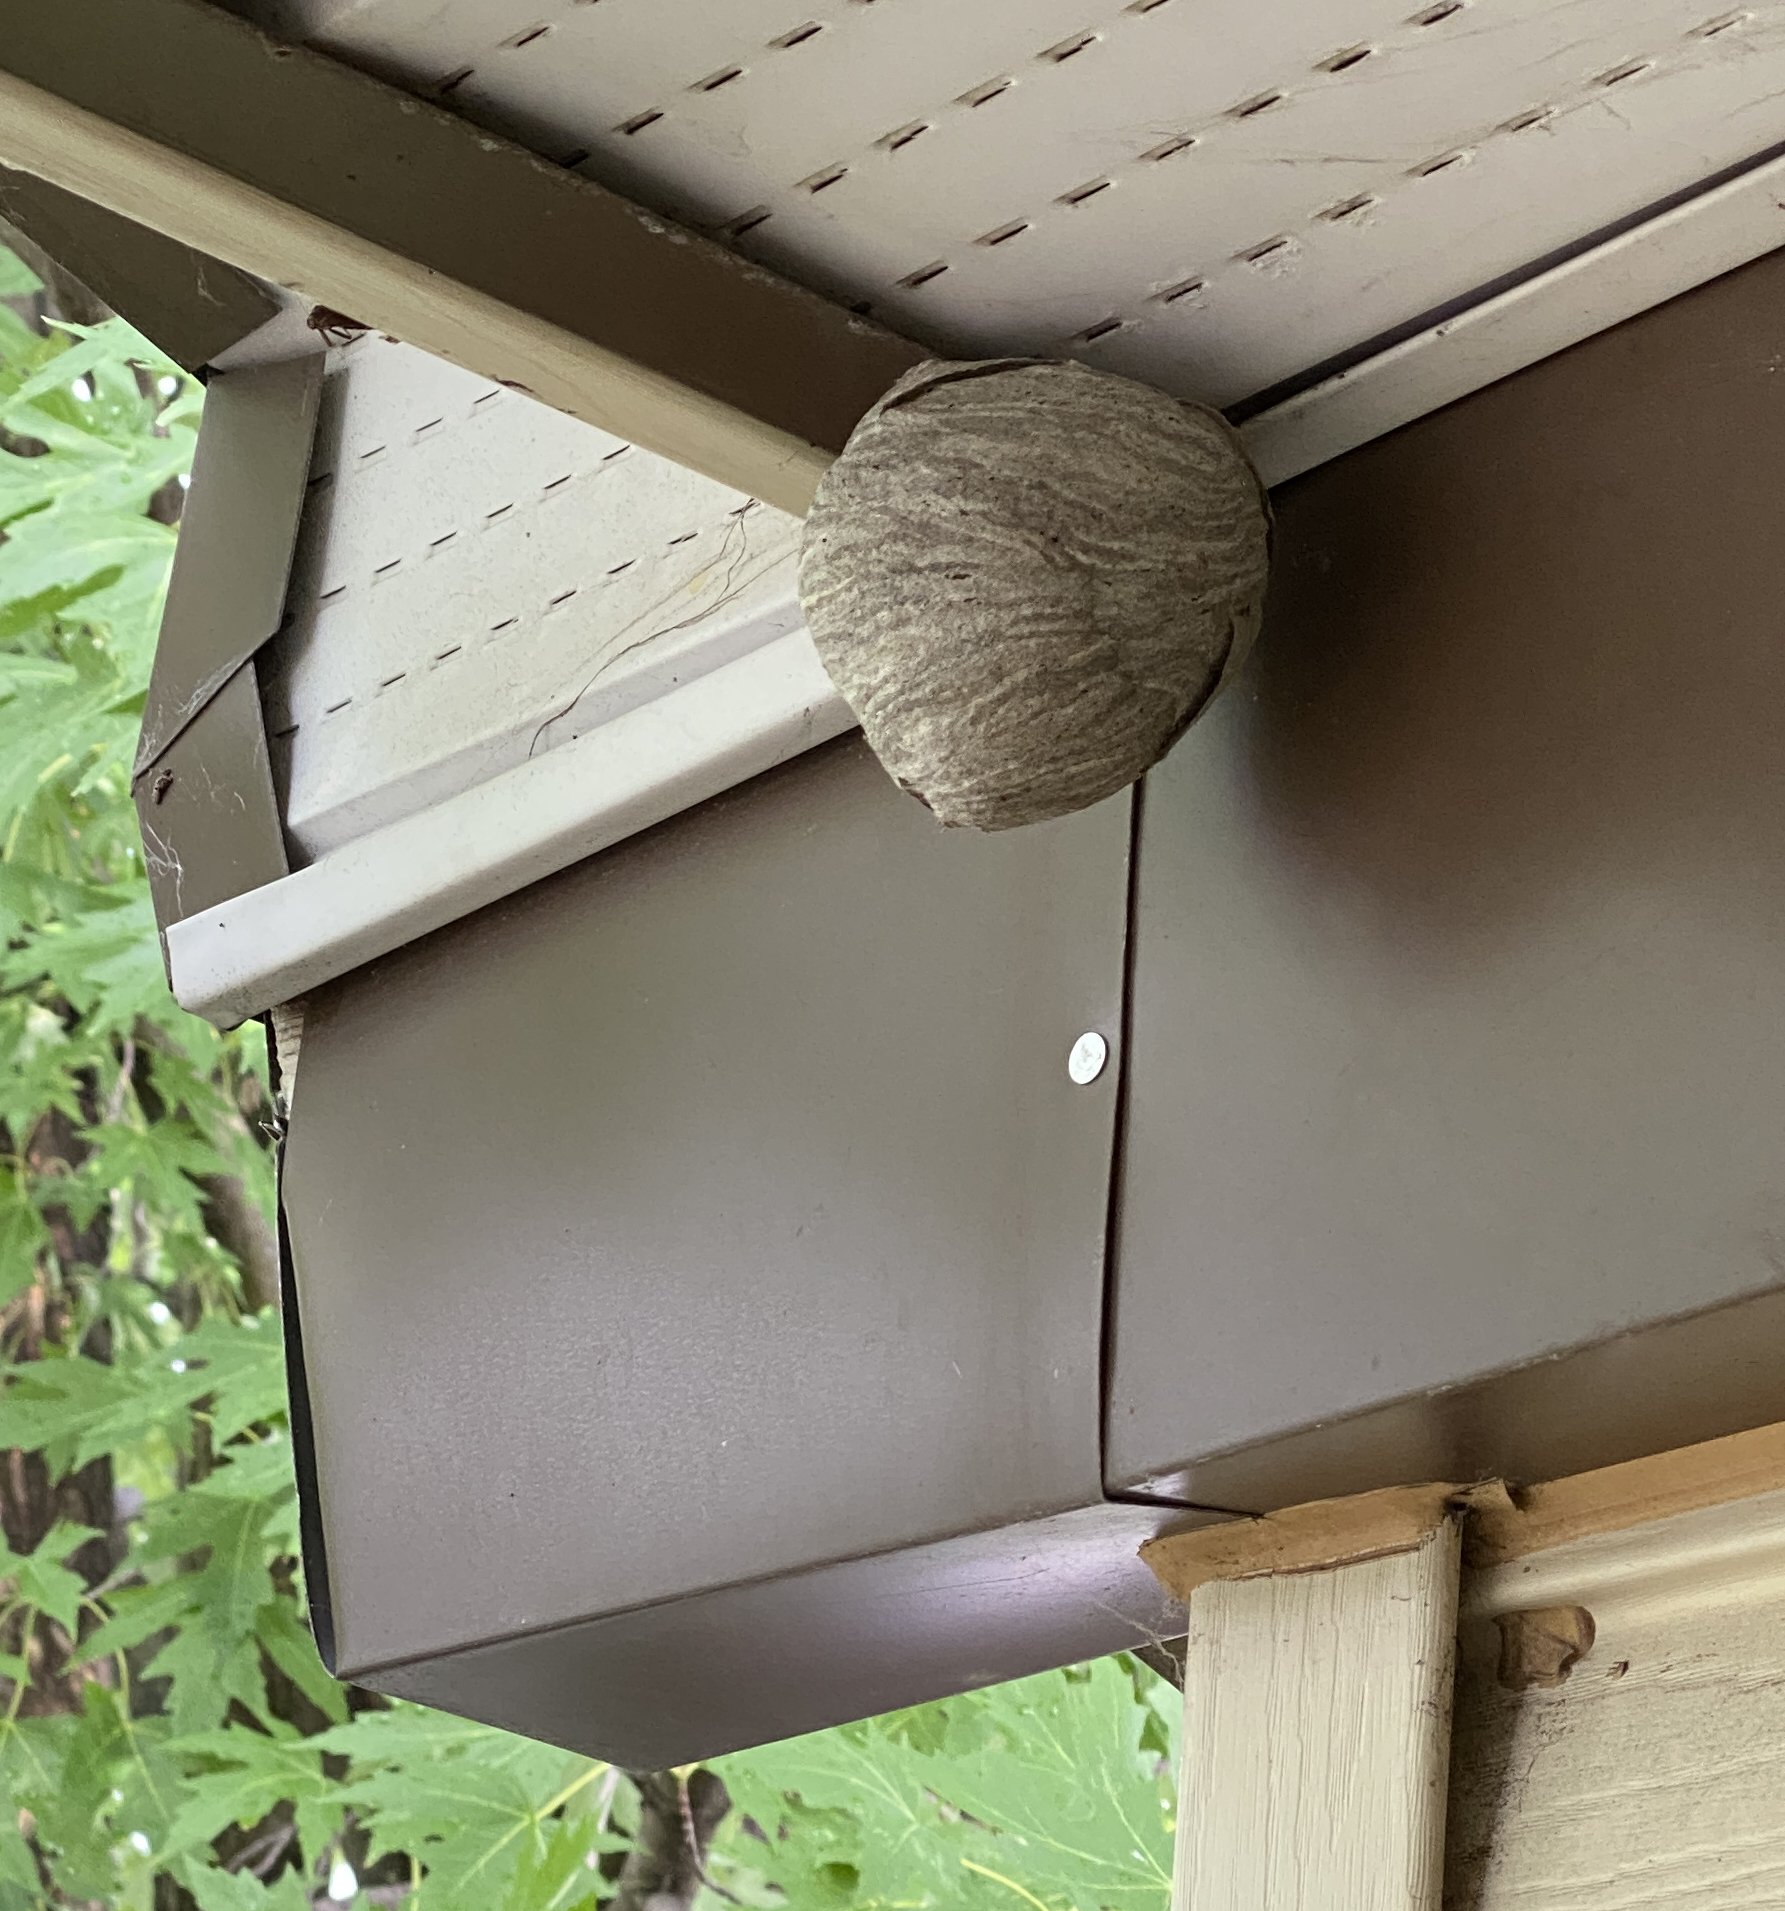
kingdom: Animalia
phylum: Arthropoda
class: Insecta
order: Hymenoptera
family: Vespidae
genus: Dolichovespula
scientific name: Dolichovespula
